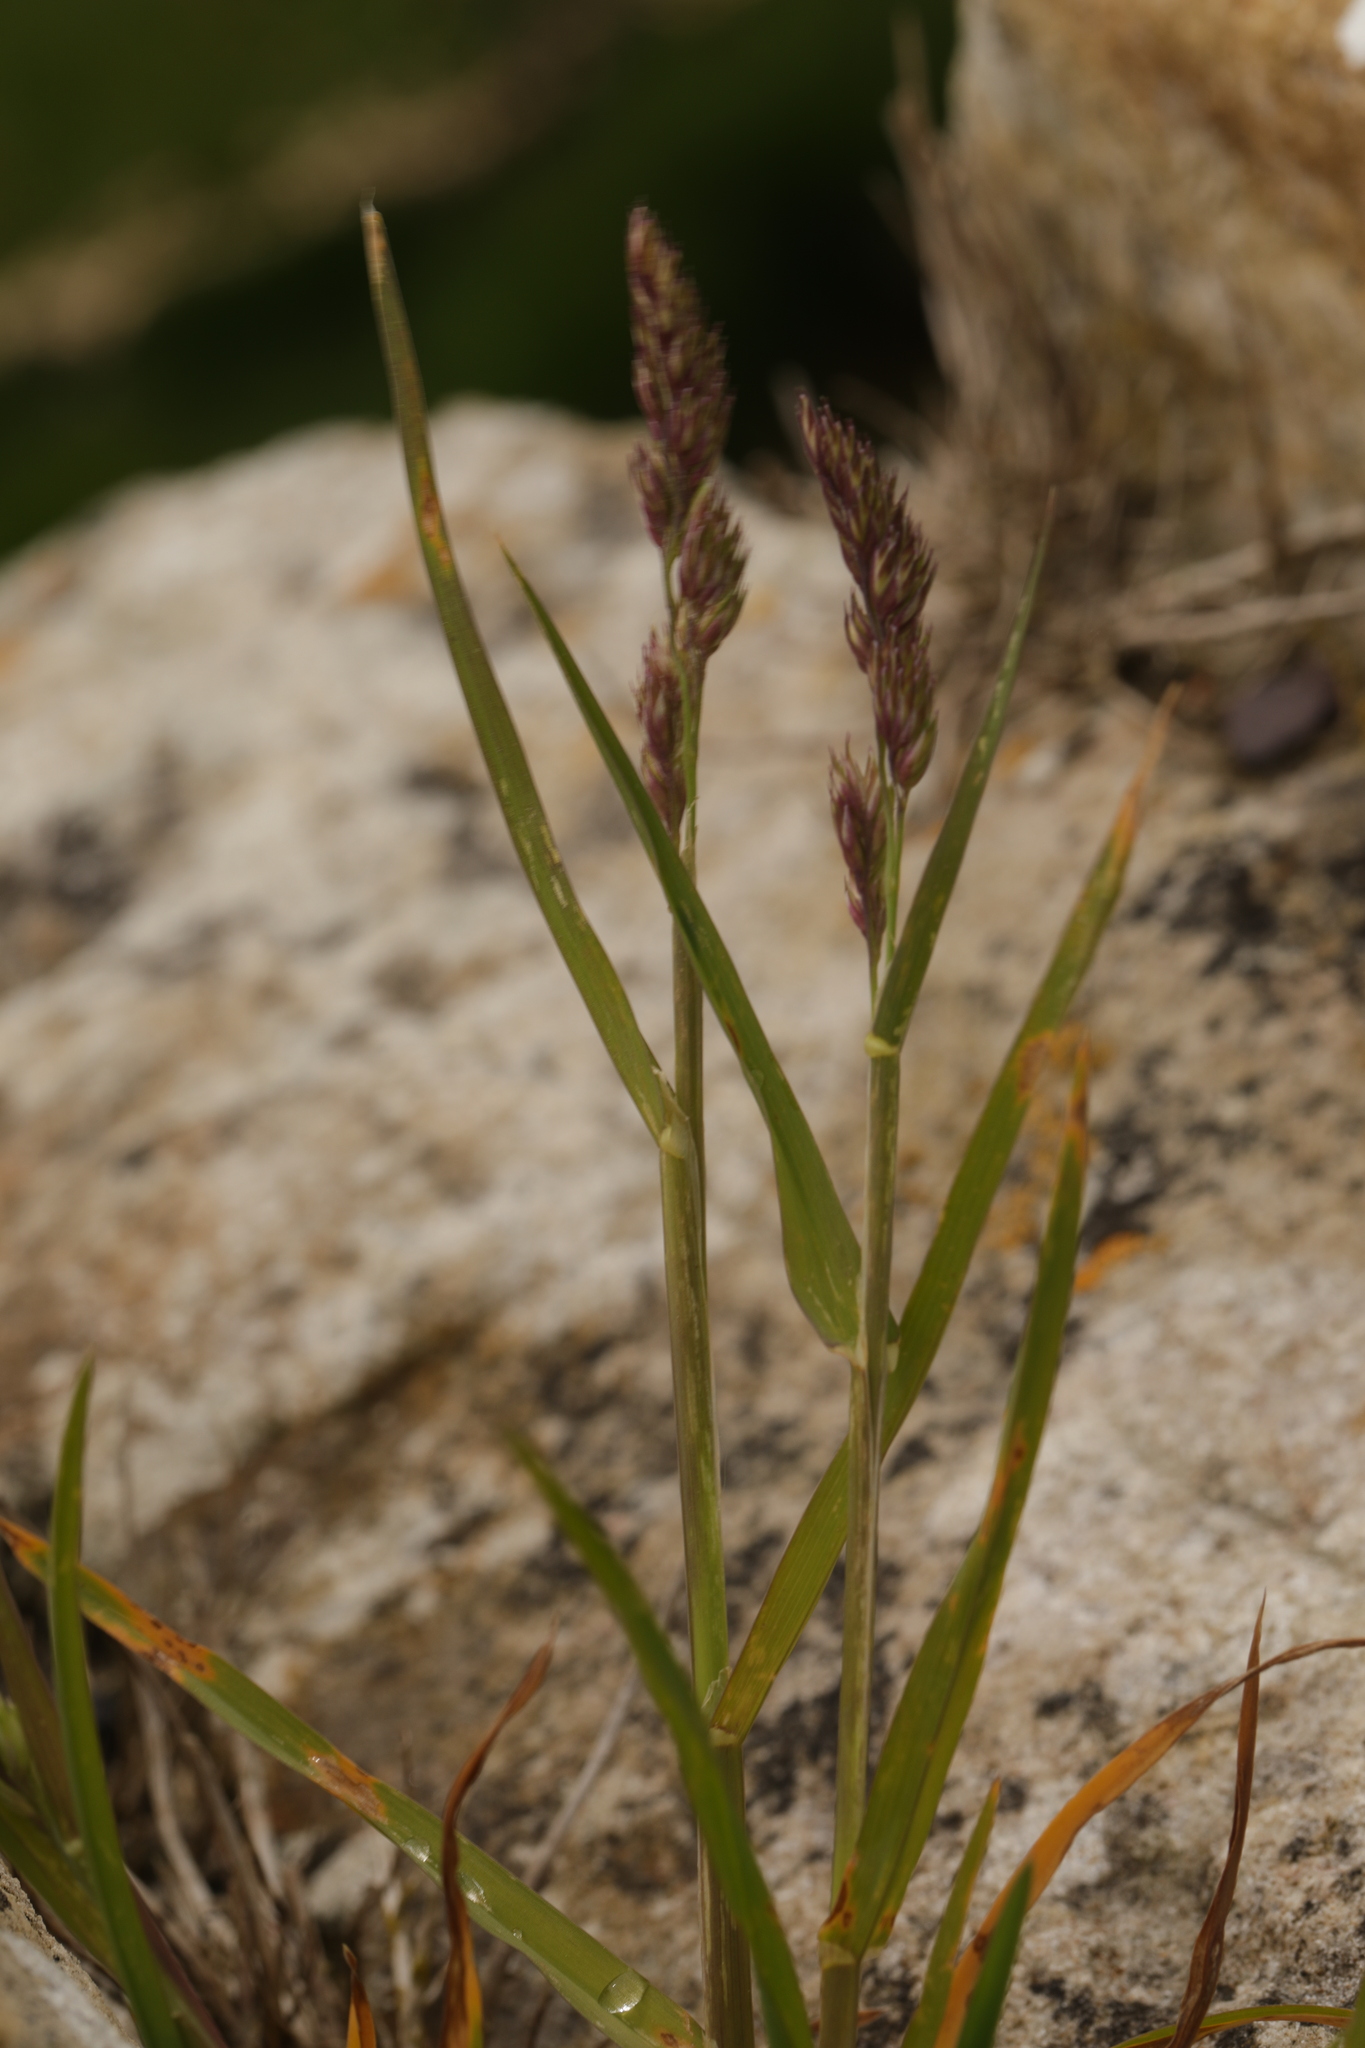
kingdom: Plantae
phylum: Tracheophyta
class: Liliopsida
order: Poales
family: Poaceae
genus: Dactylis
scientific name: Dactylis glomerata
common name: Orchardgrass
